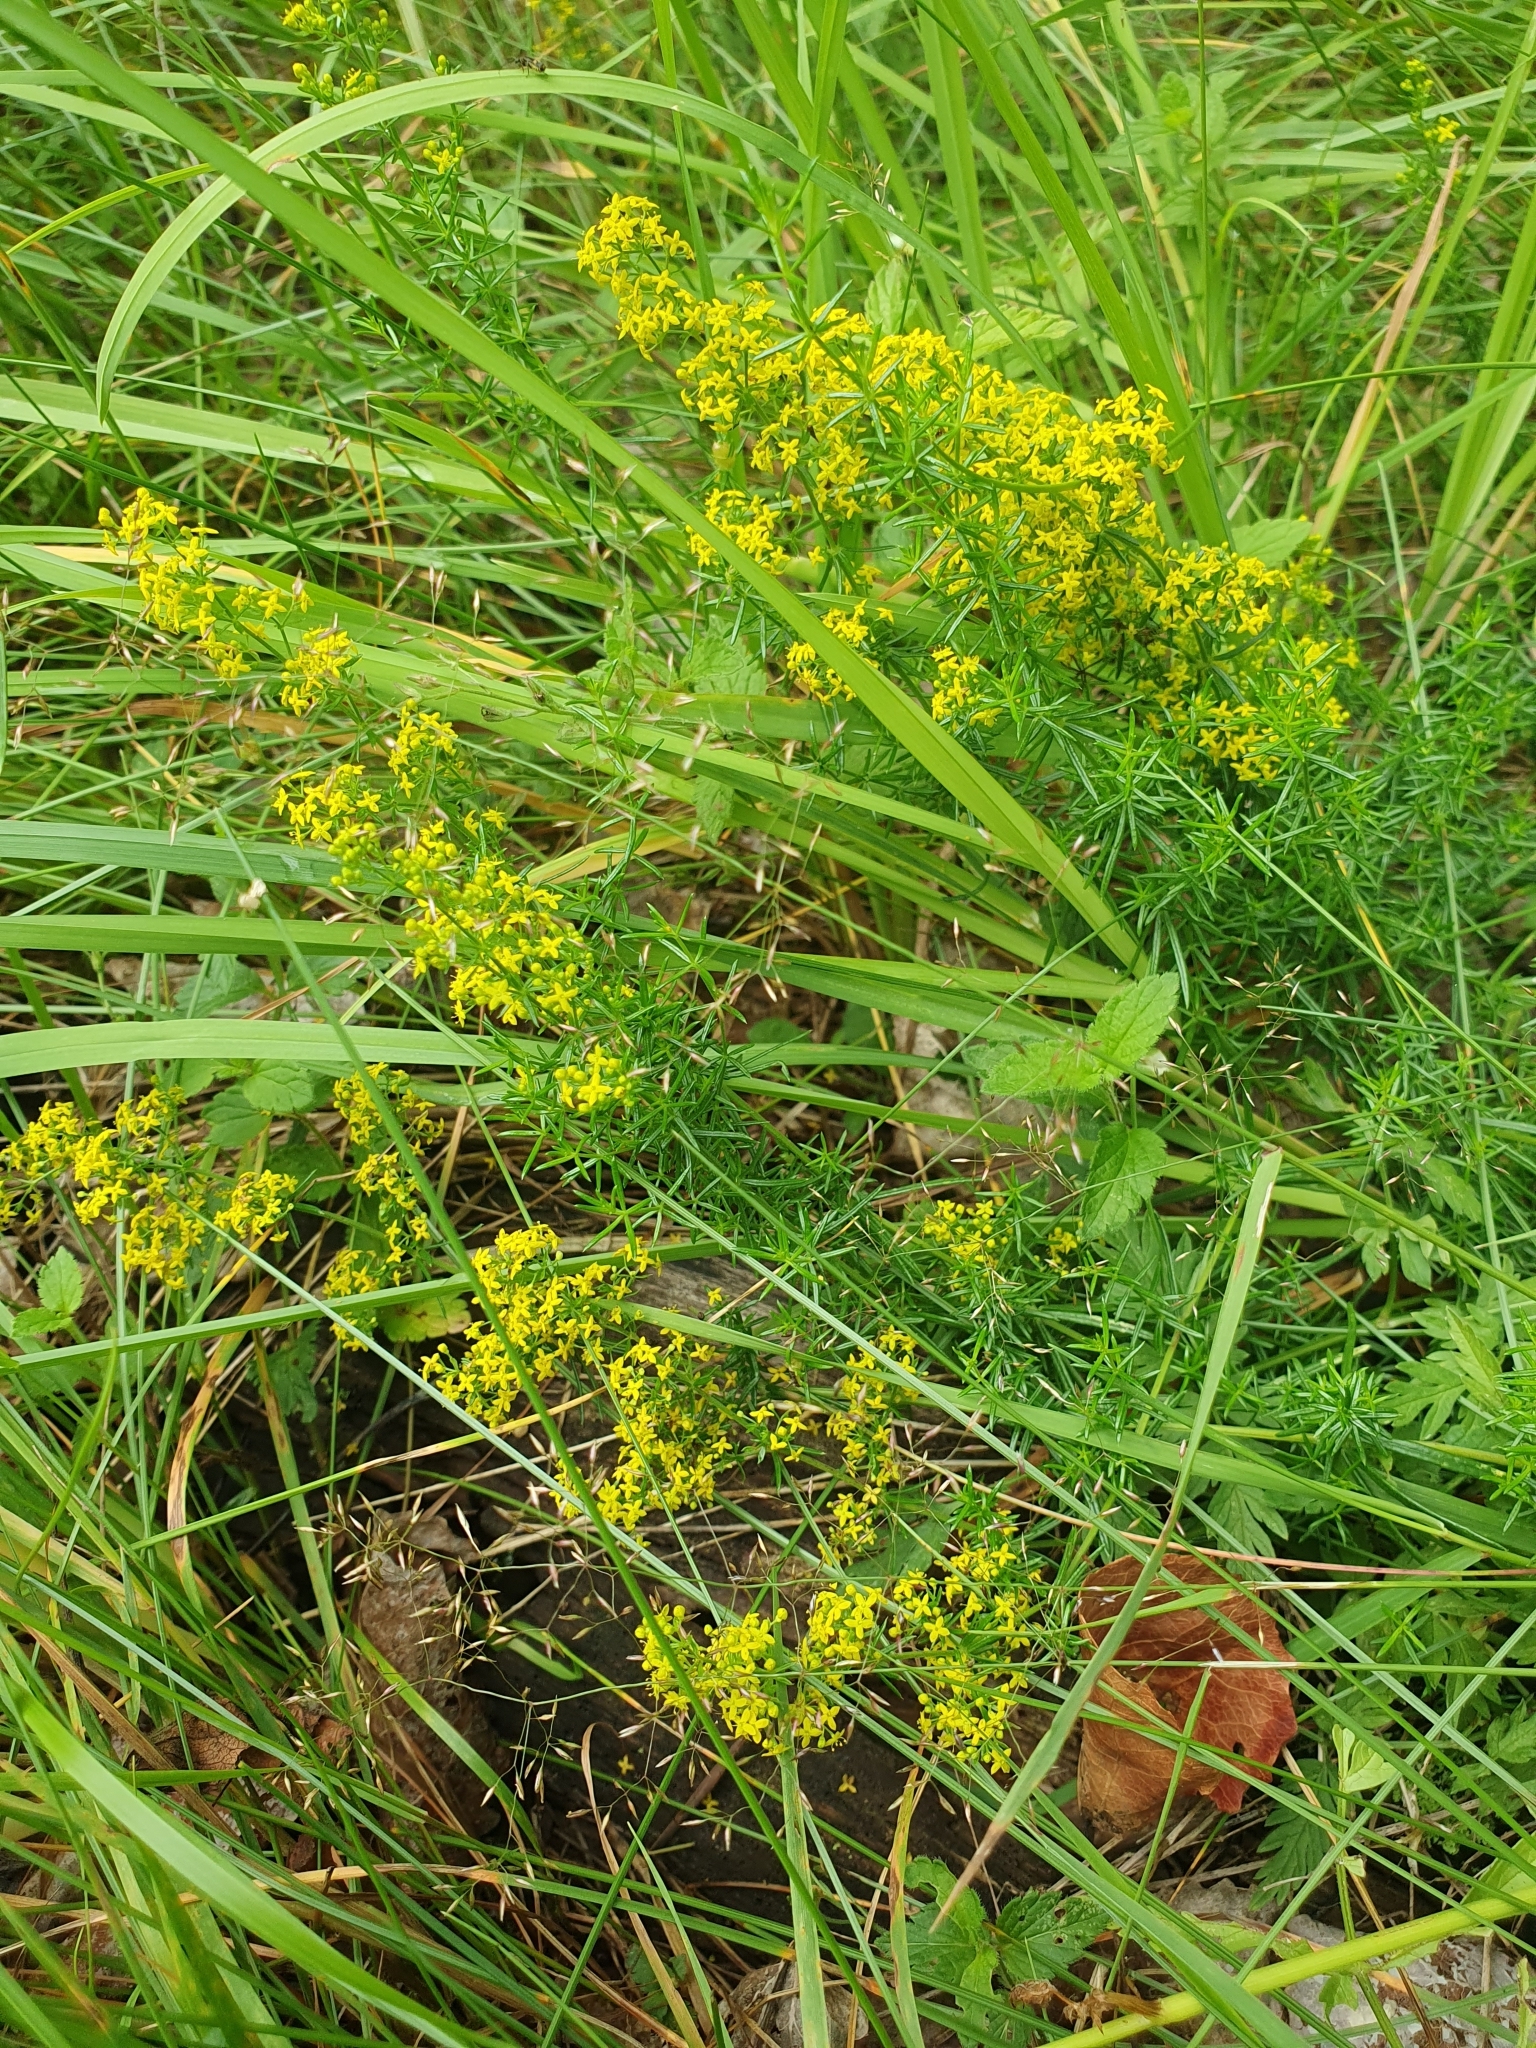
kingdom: Plantae
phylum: Tracheophyta
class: Magnoliopsida
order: Gentianales
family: Rubiaceae
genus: Galium
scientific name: Galium verum
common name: Lady's bedstraw
